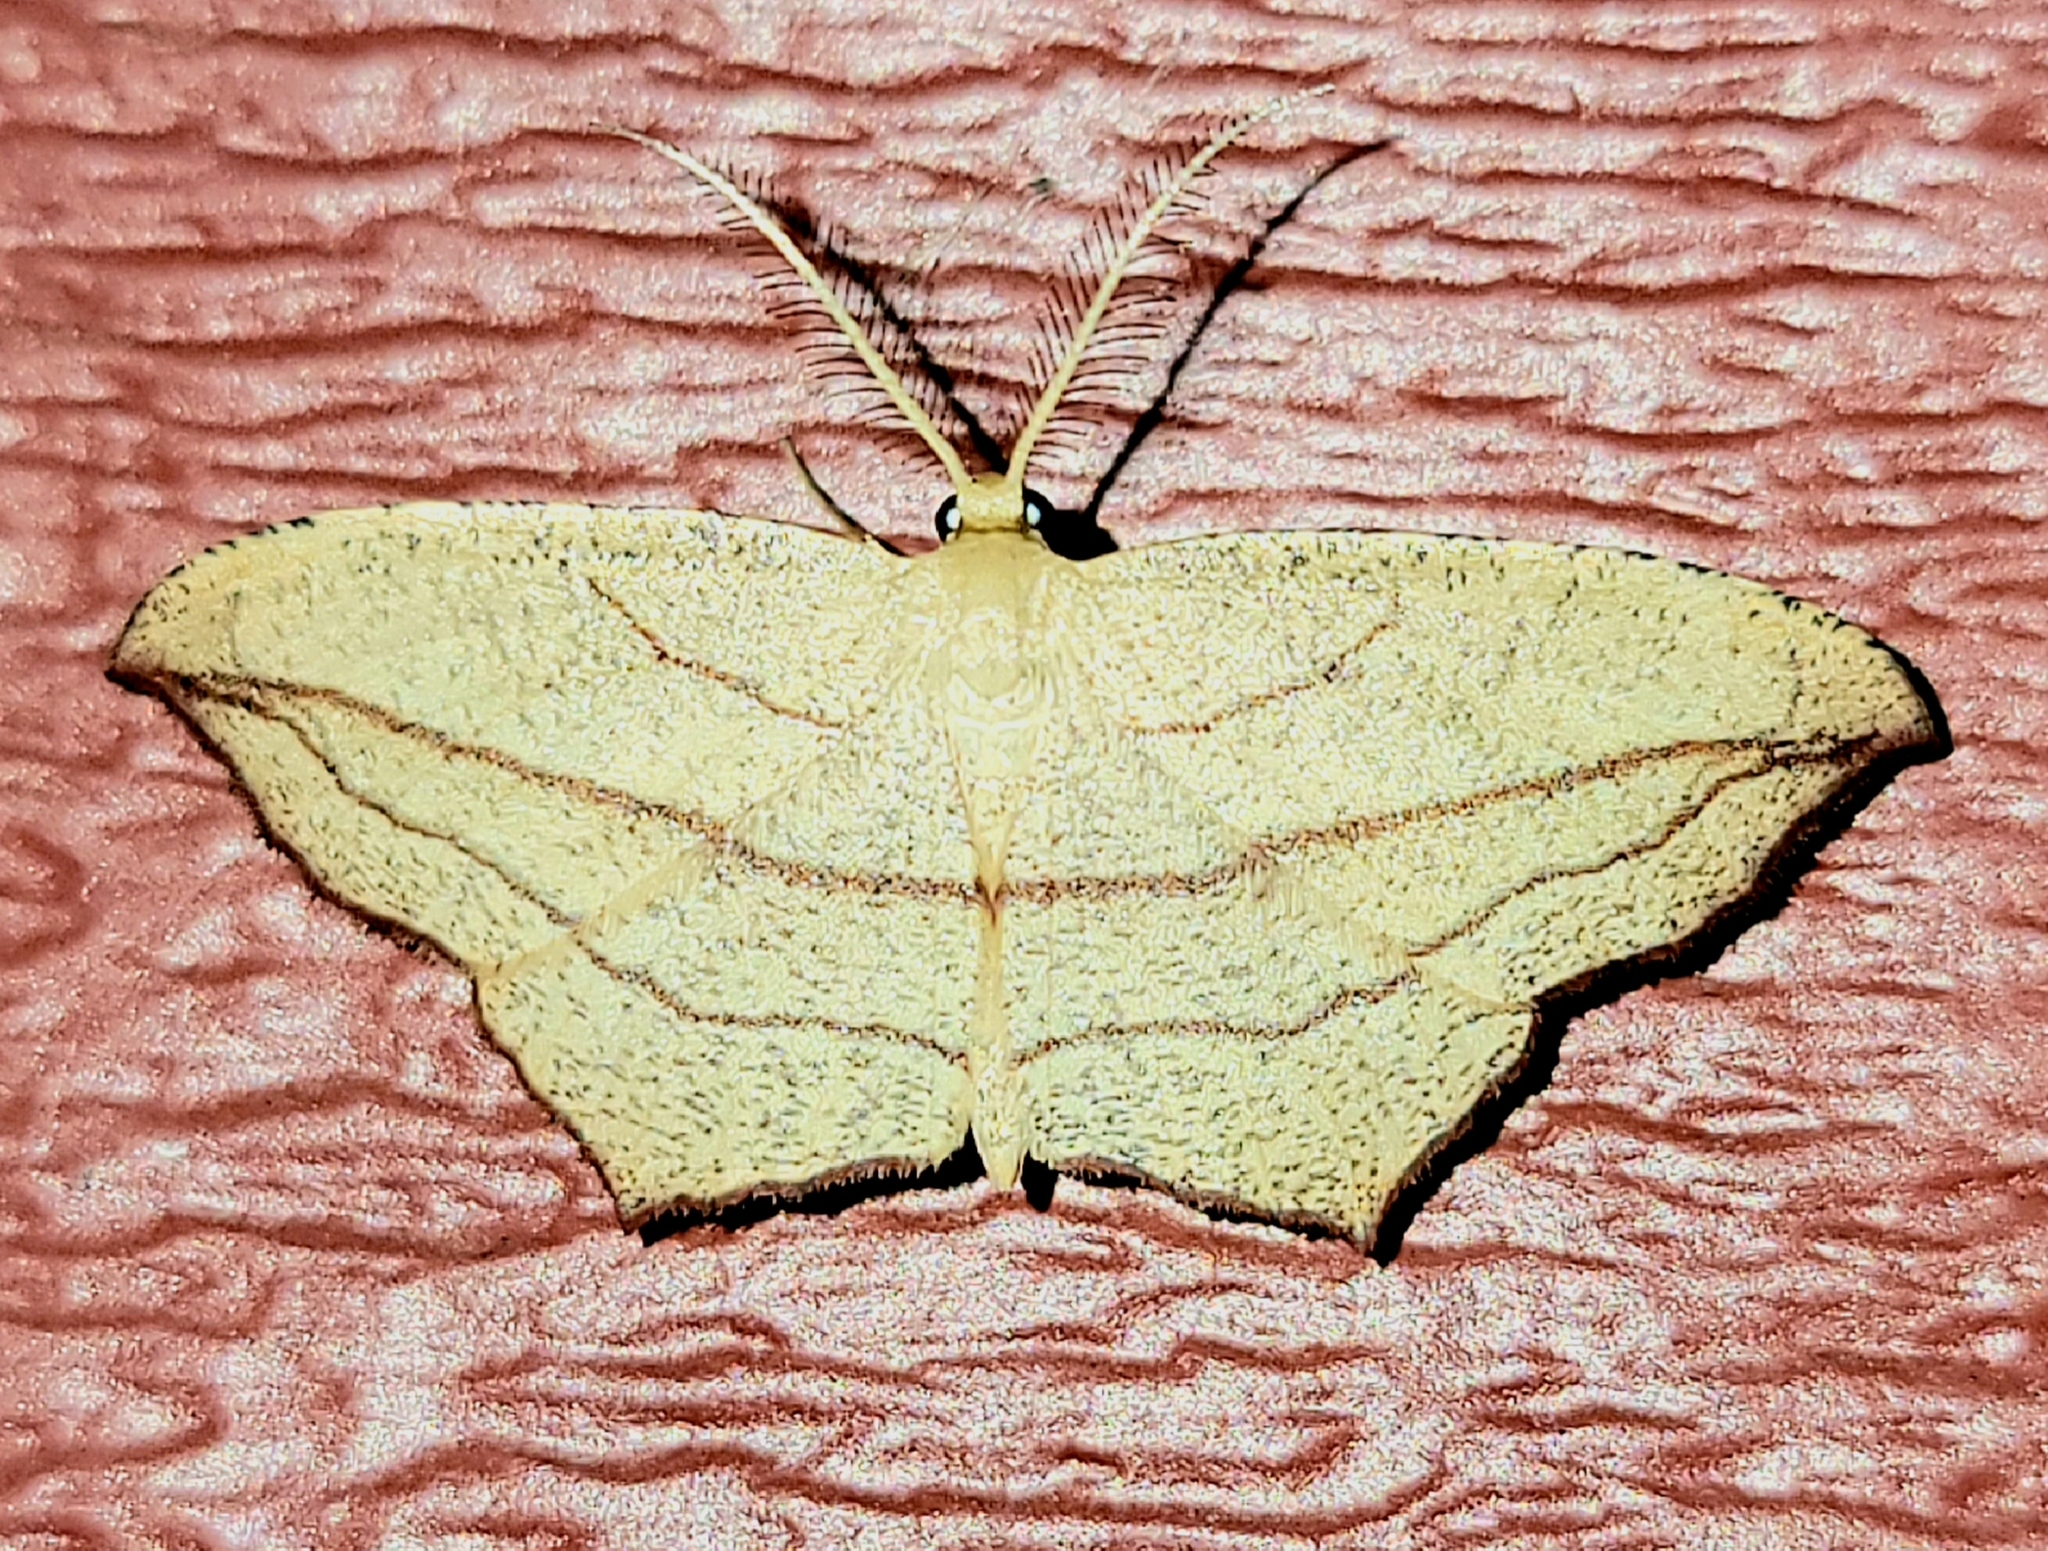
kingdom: Animalia
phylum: Arthropoda
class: Insecta
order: Lepidoptera
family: Geometridae
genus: Timandra
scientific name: Timandra amaturaria
